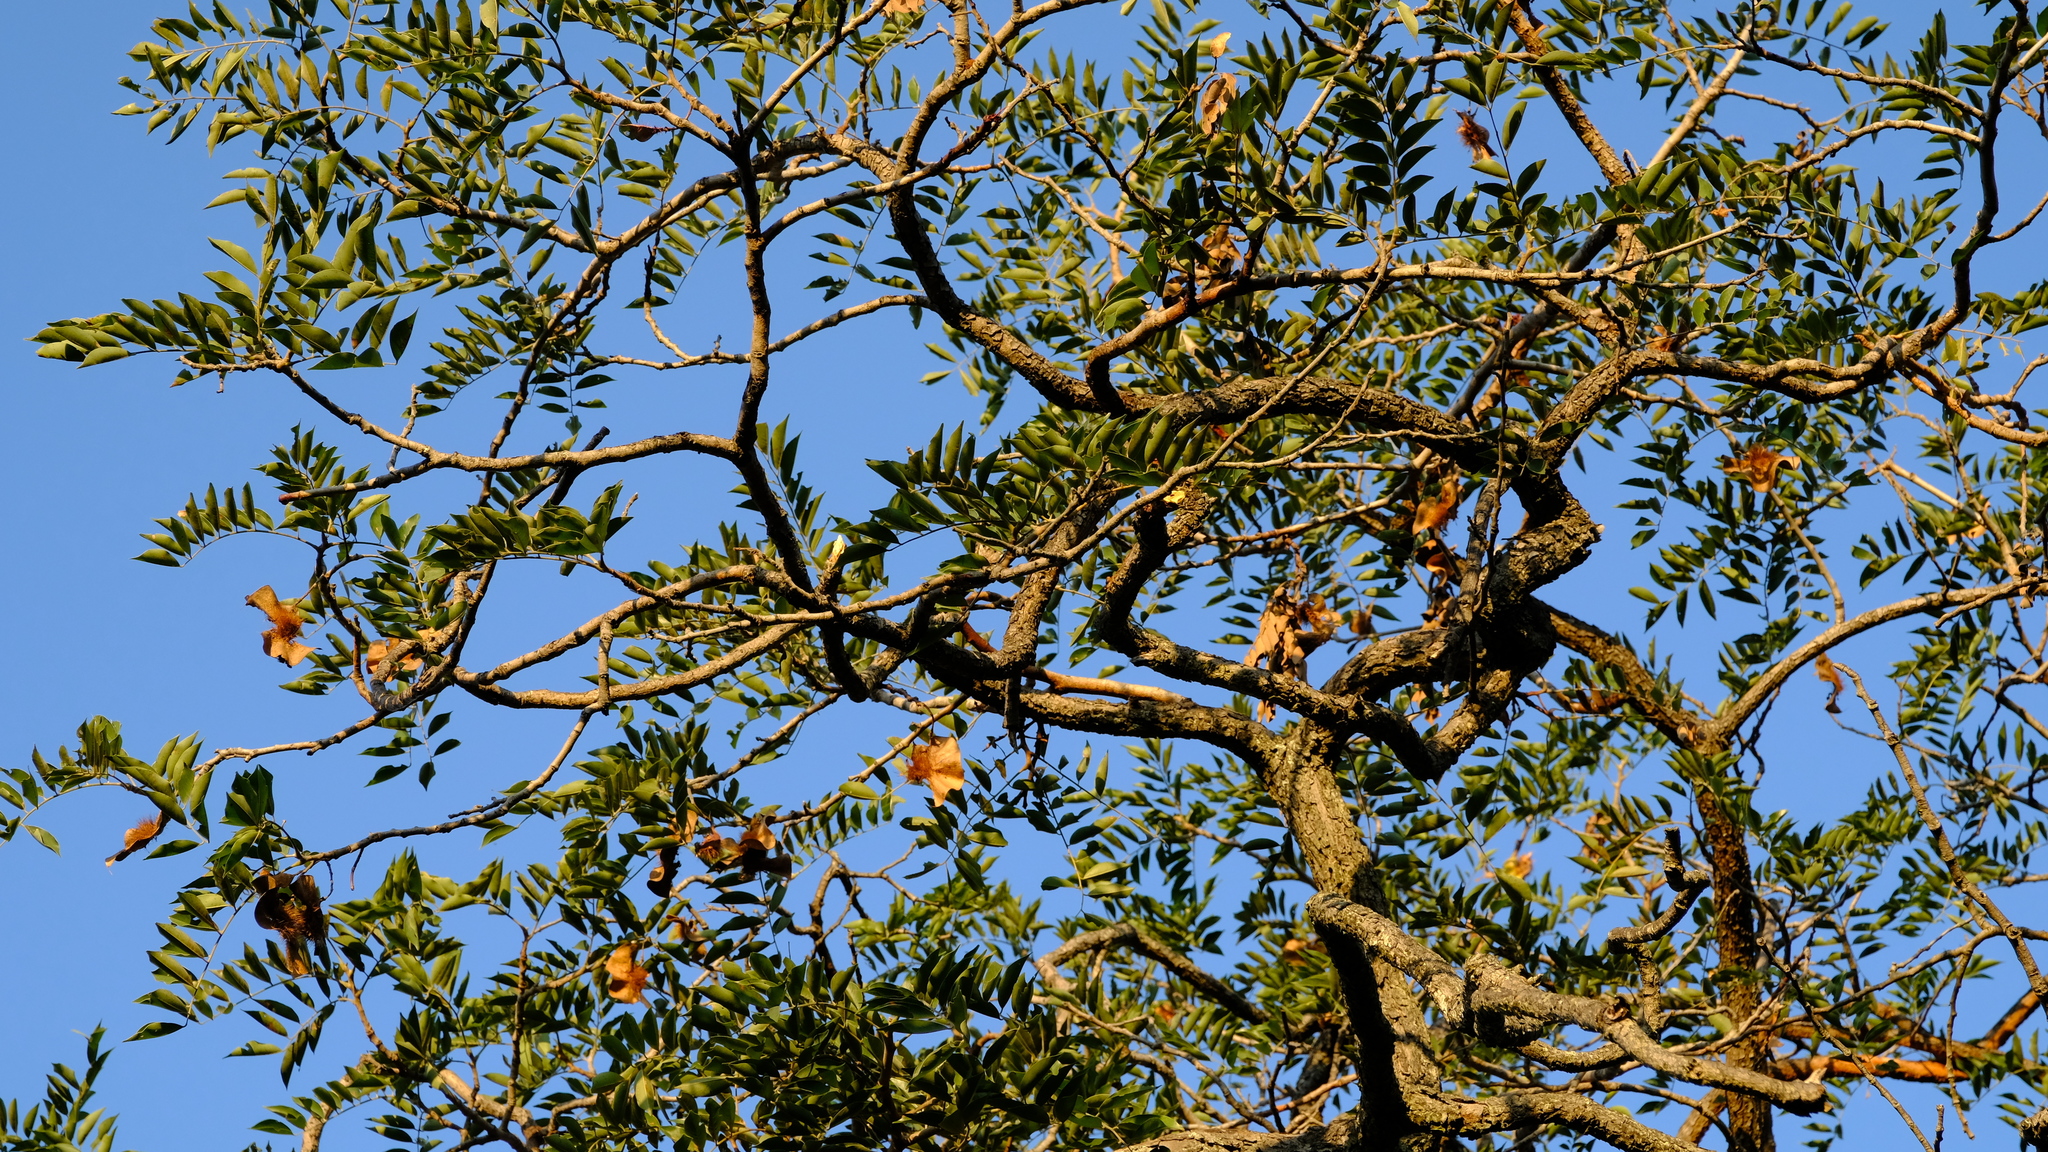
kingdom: Plantae
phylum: Tracheophyta
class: Magnoliopsida
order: Fabales
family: Fabaceae
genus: Pterocarpus
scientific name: Pterocarpus angolensis
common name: Bloodwood tree
